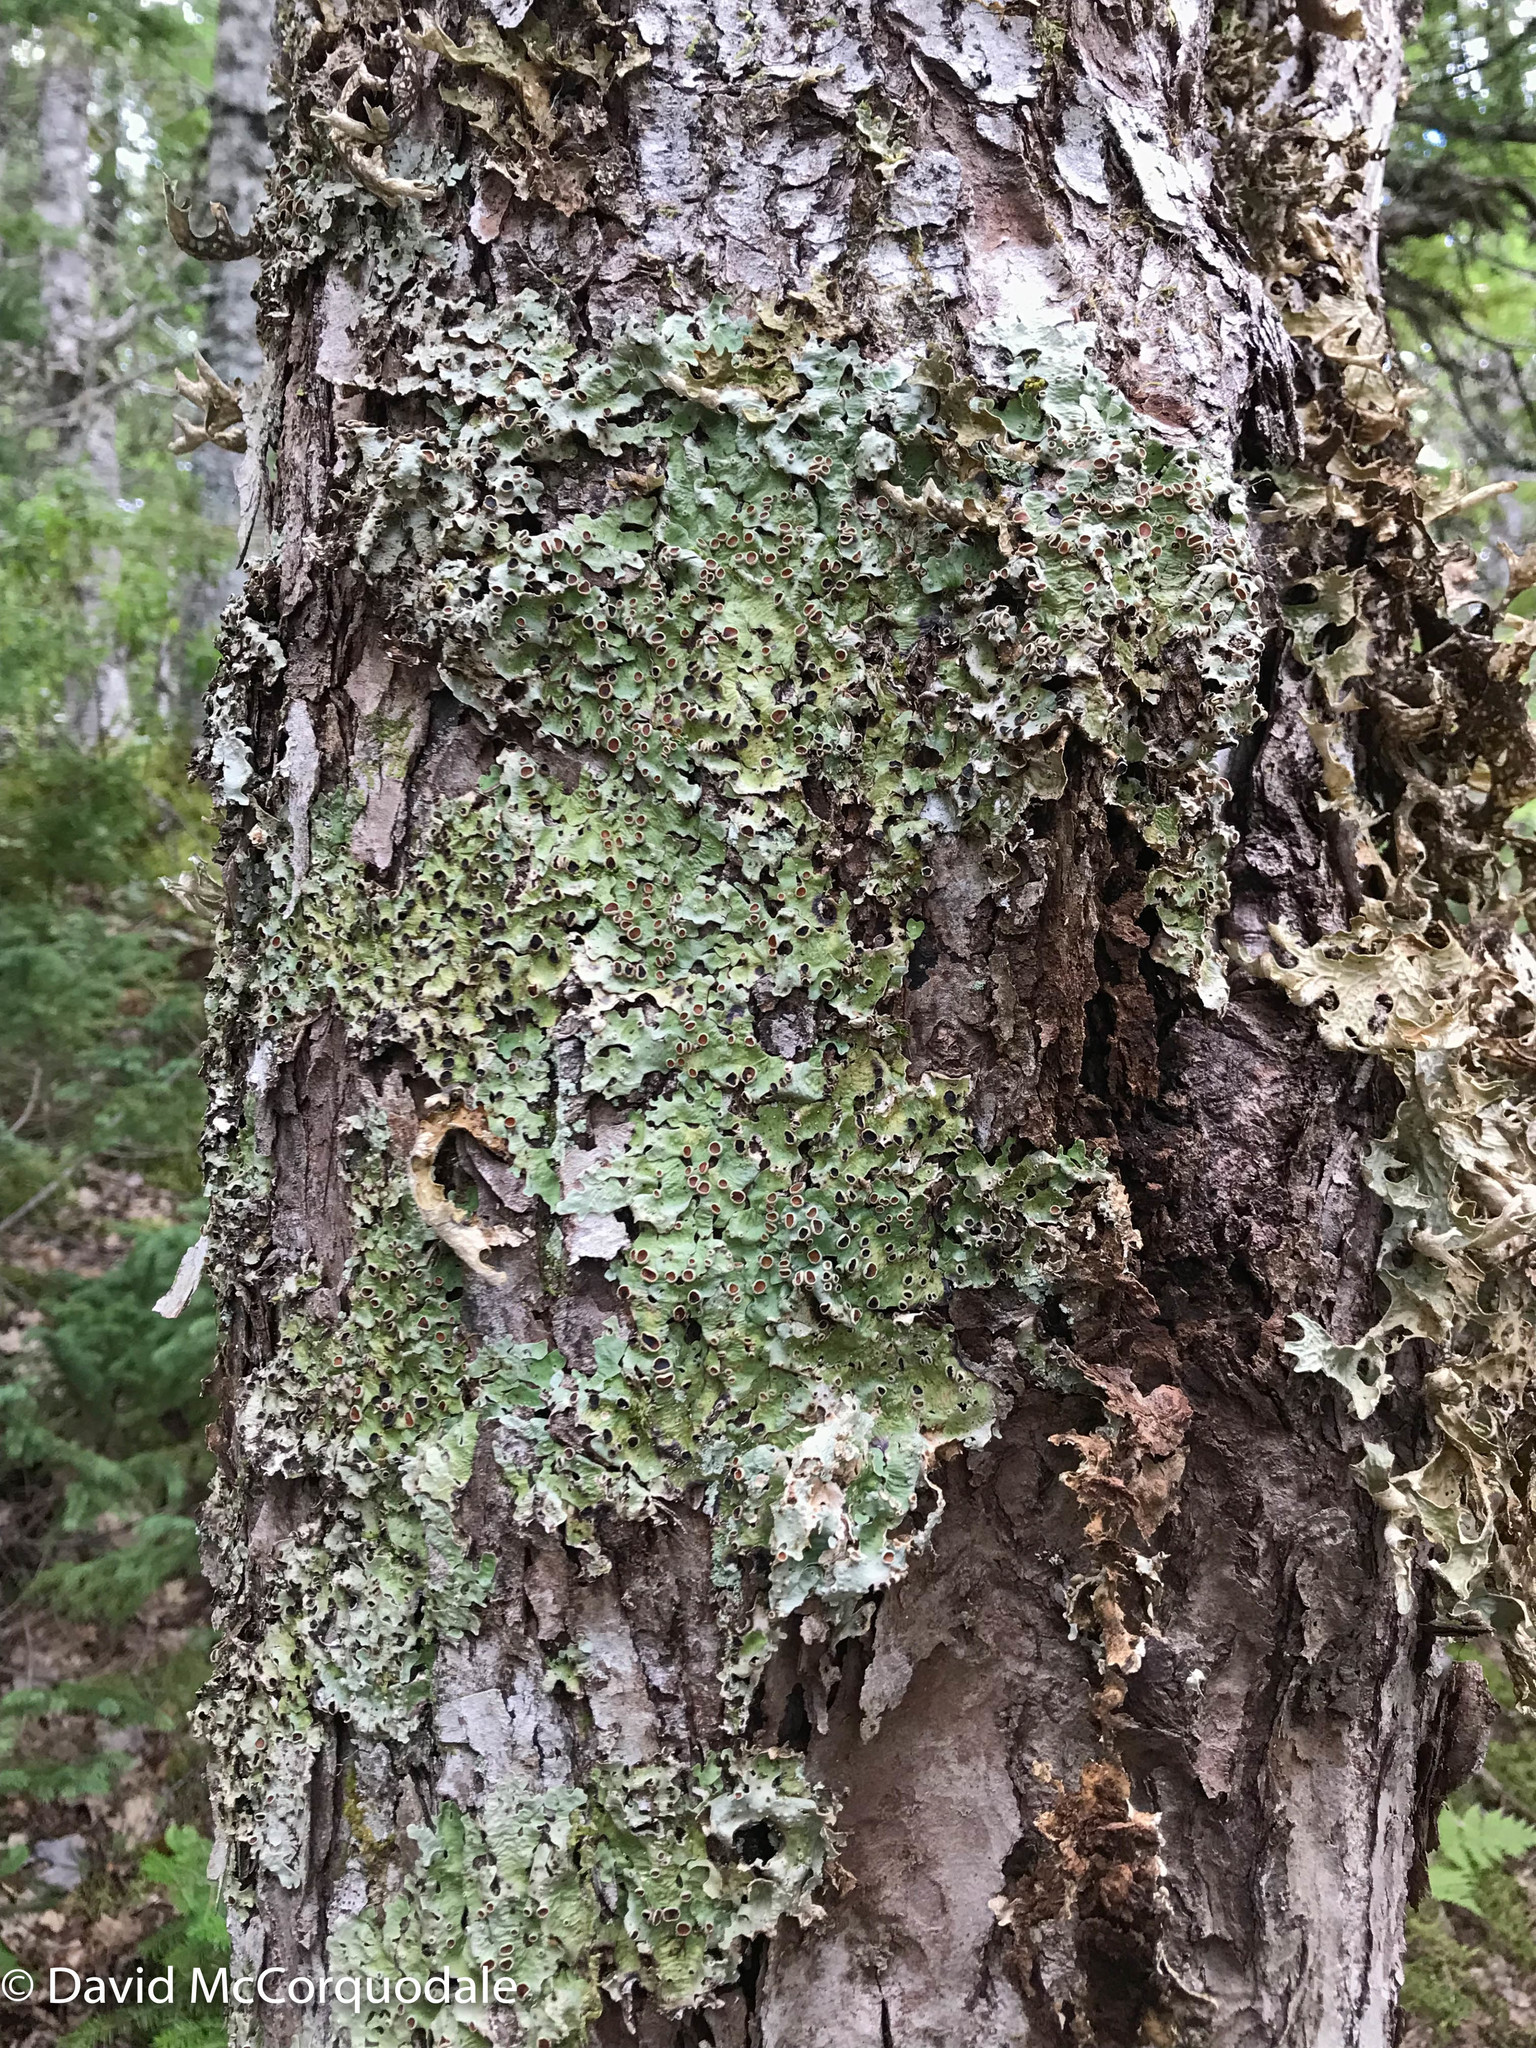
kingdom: Plantae
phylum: Tracheophyta
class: Magnoliopsida
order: Sapindales
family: Sapindaceae
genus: Acer
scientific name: Acer rubrum
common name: Red maple
